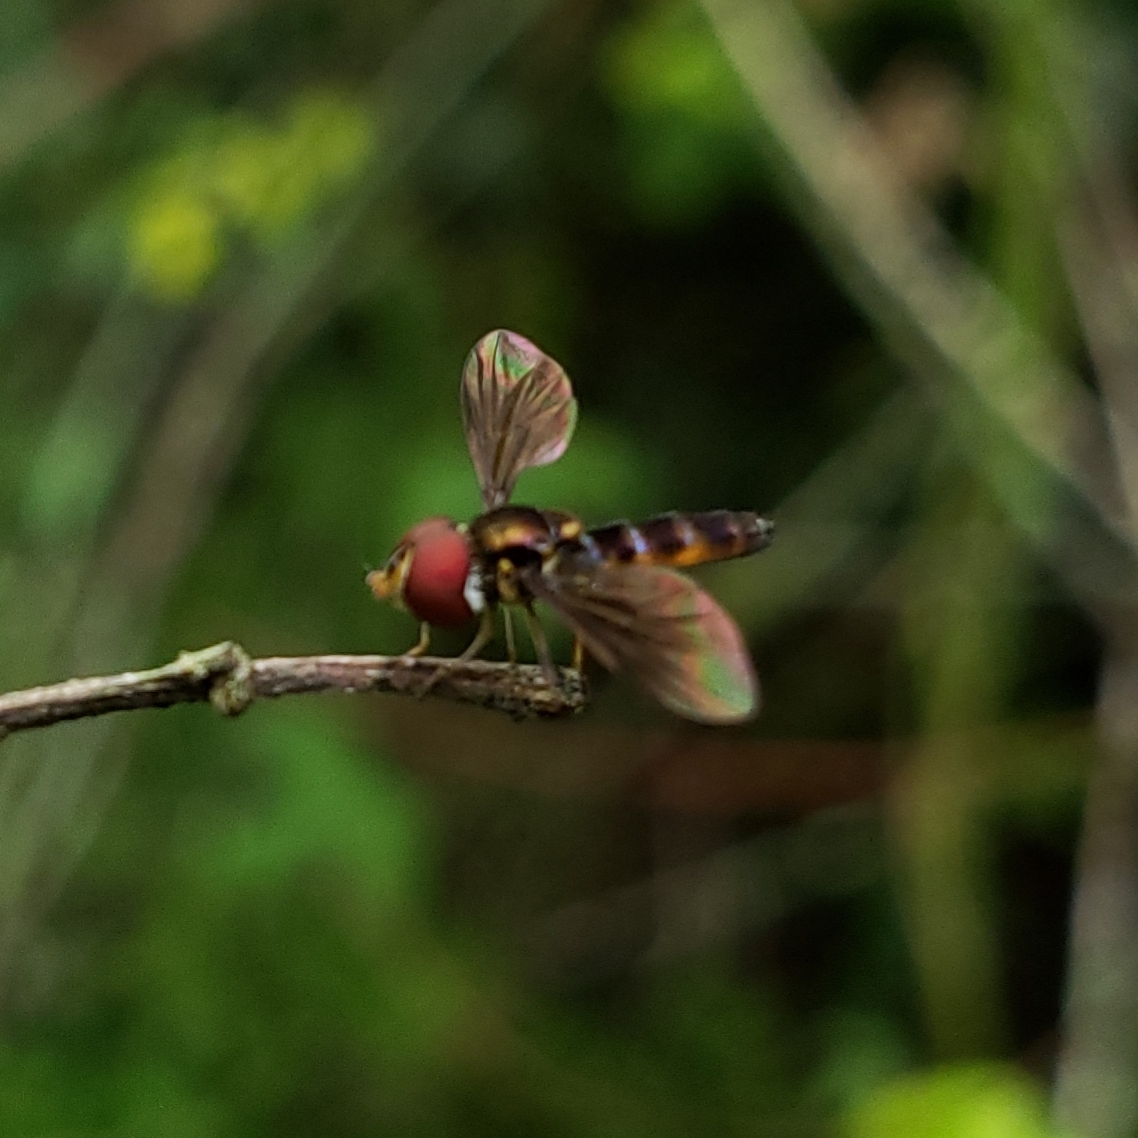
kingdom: Animalia
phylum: Arthropoda
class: Insecta
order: Diptera
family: Syrphidae
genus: Ocyptamus
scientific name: Ocyptamus antiphates
